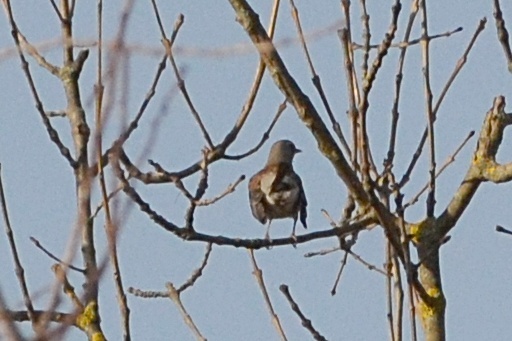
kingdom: Animalia
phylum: Chordata
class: Aves
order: Passeriformes
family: Turdidae
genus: Turdus
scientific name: Turdus pilaris
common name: Fieldfare
